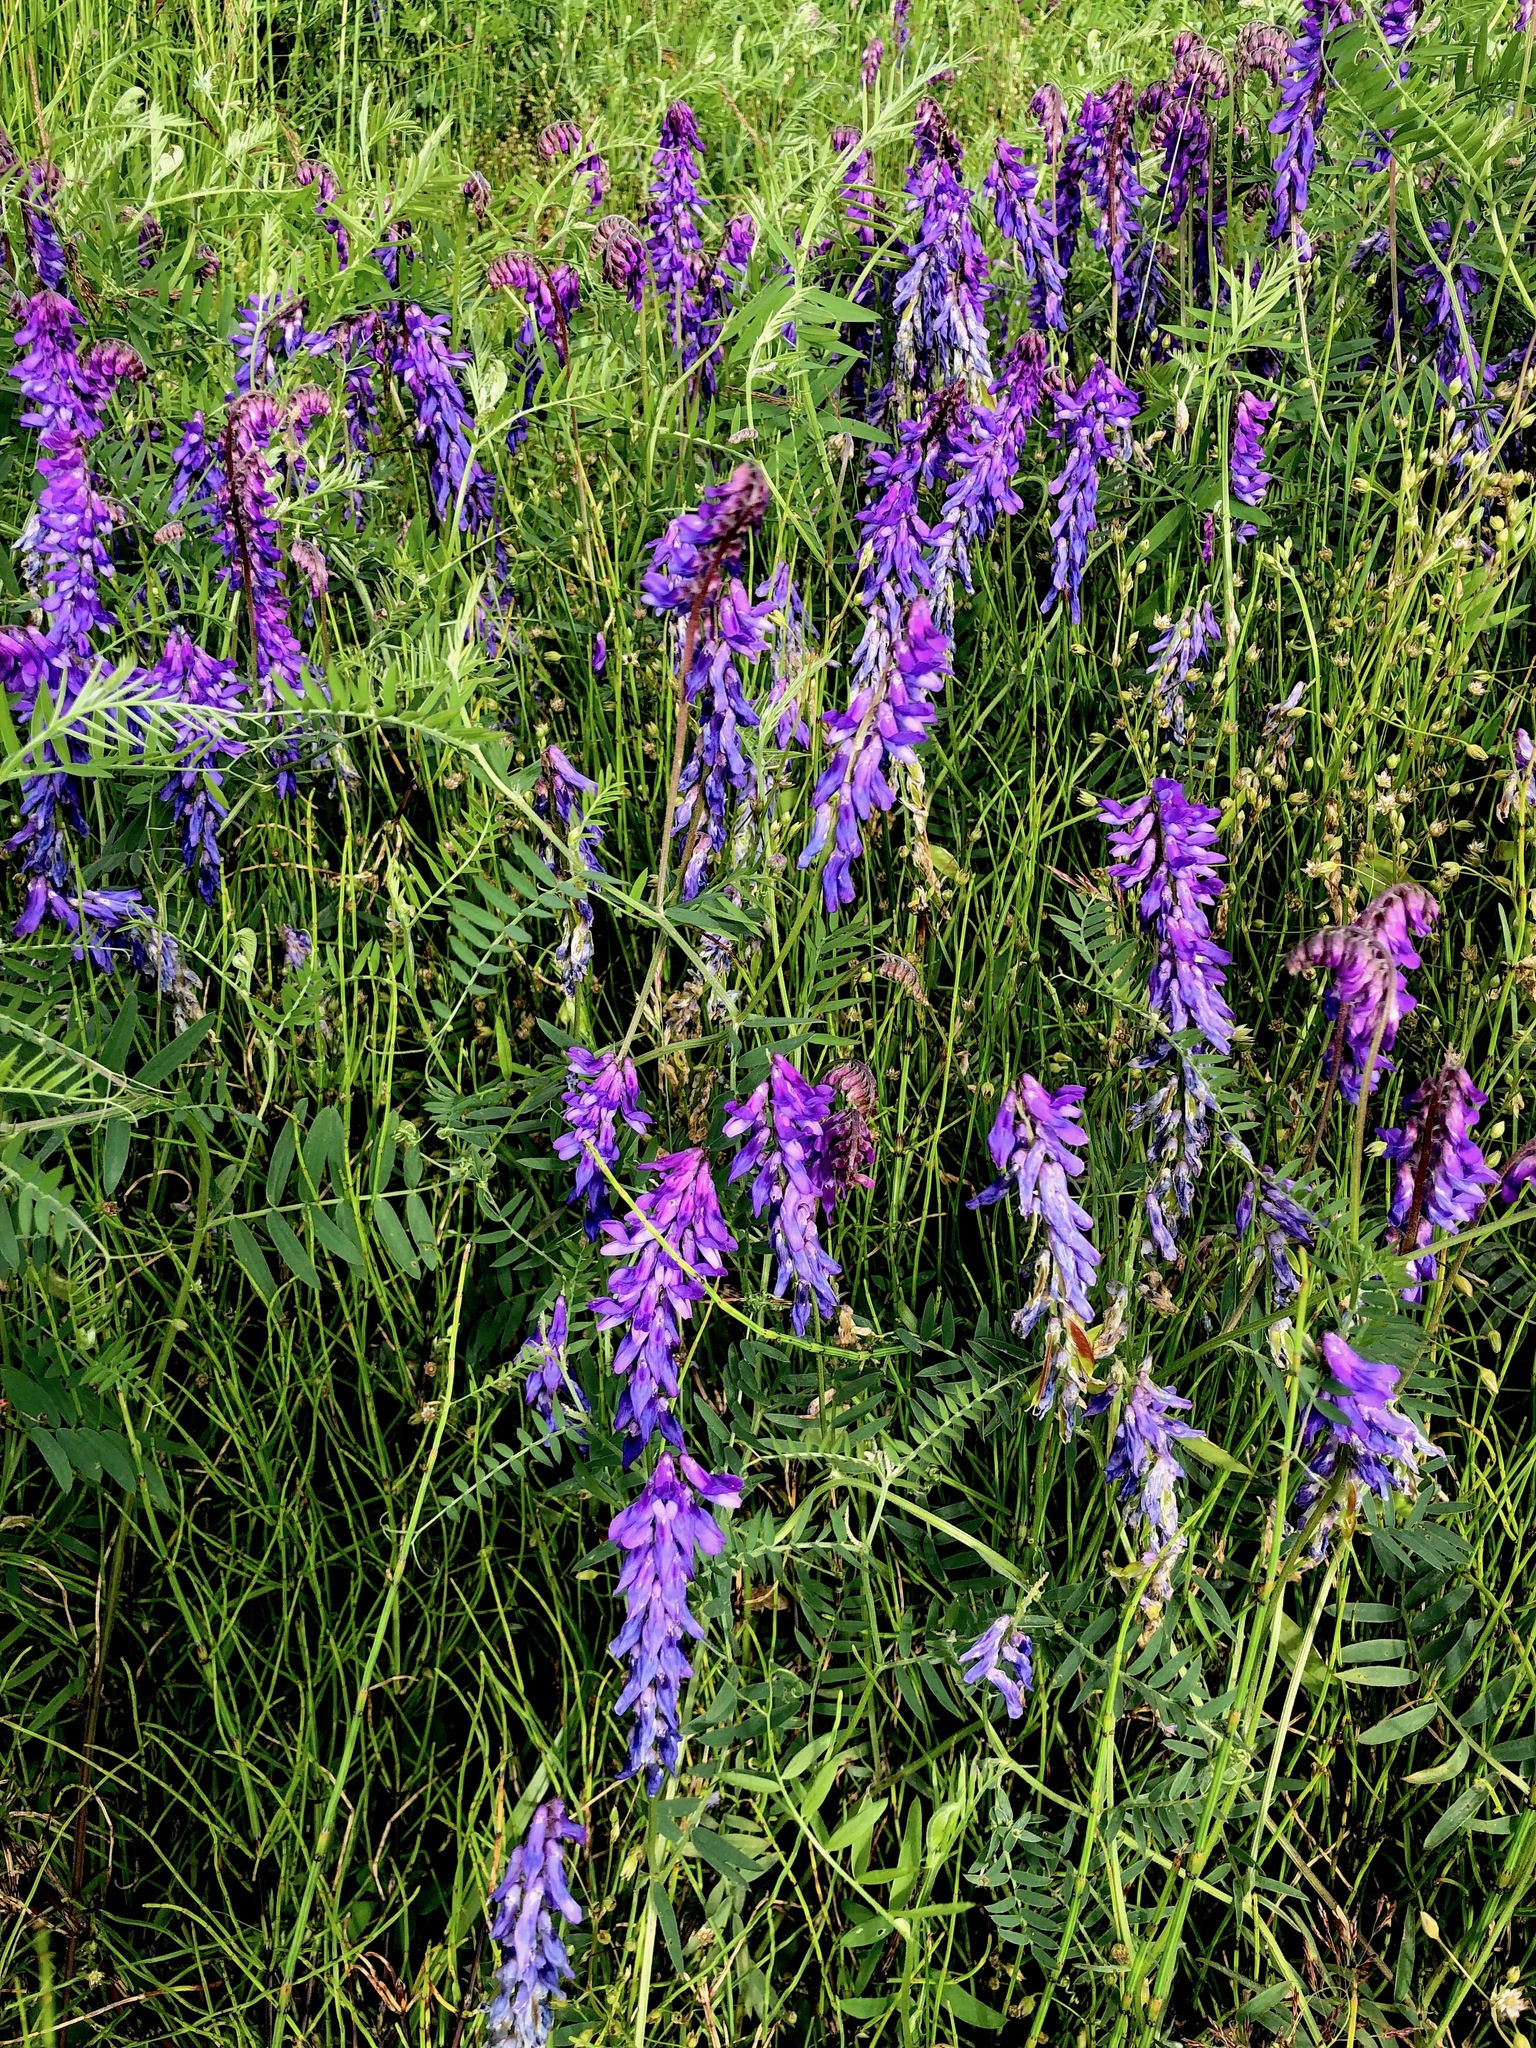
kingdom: Plantae
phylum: Tracheophyta
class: Magnoliopsida
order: Fabales
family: Fabaceae
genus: Vicia
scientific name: Vicia cracca
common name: Bird vetch
